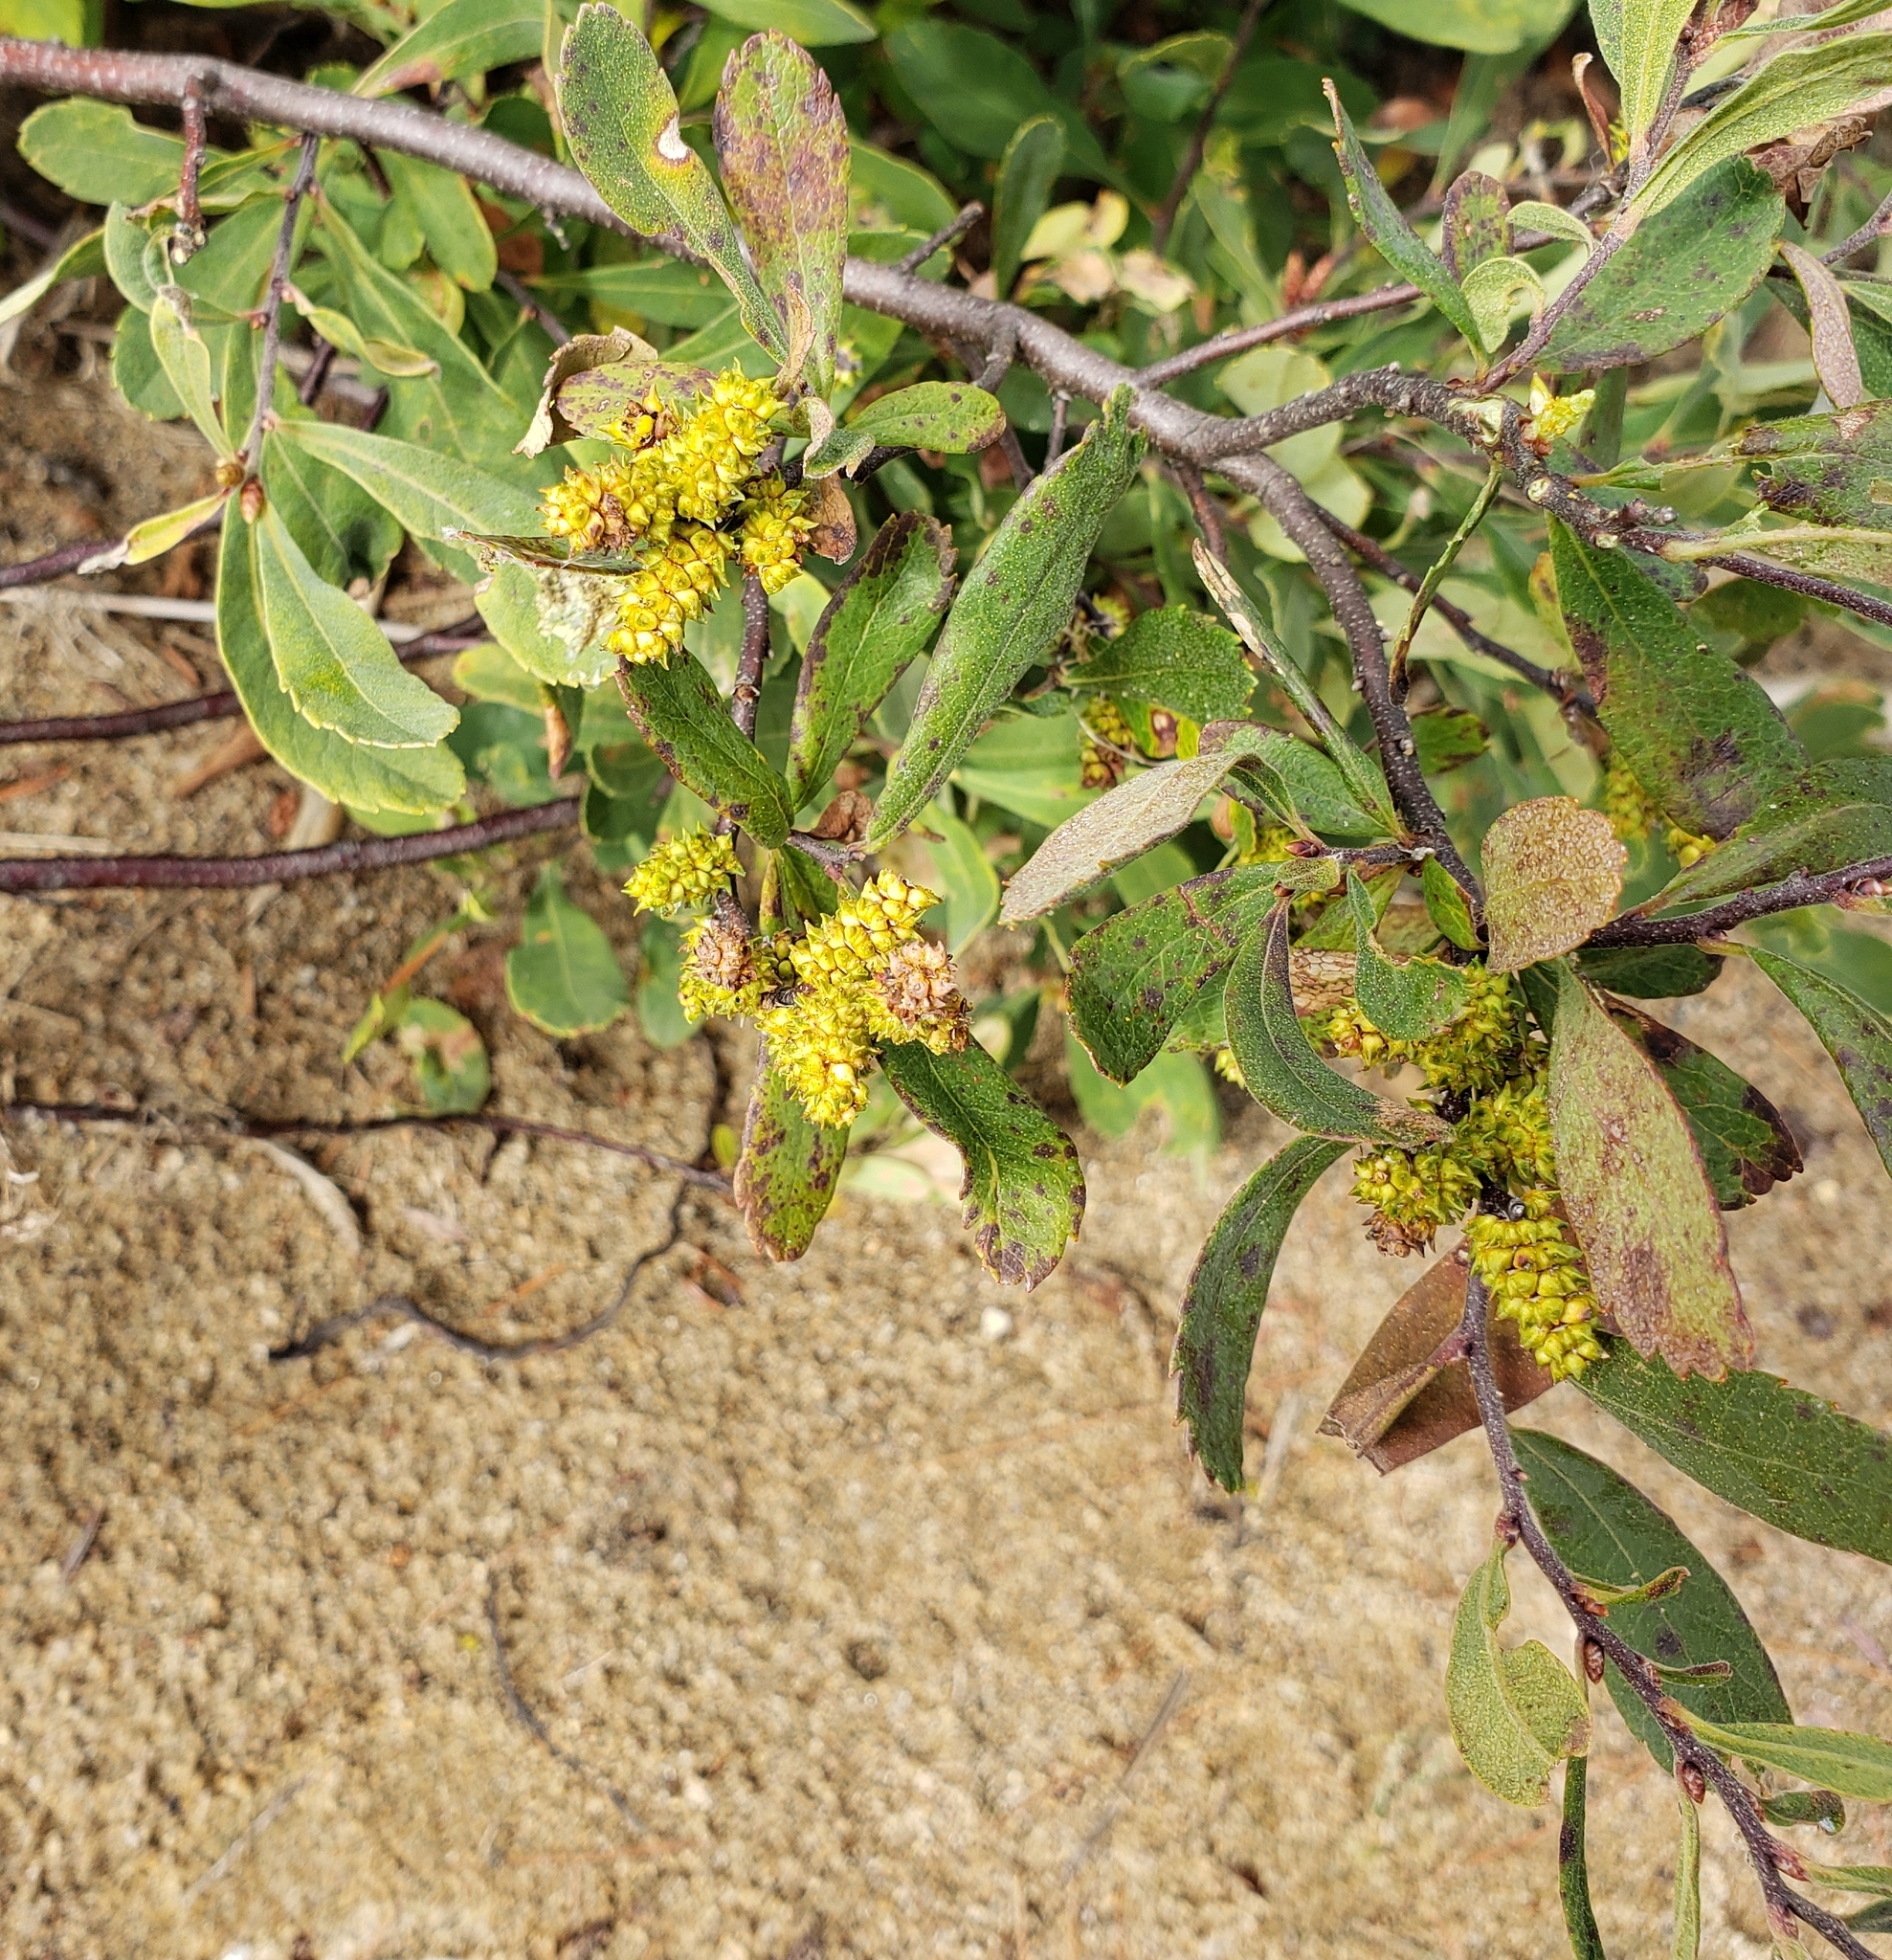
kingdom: Plantae
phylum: Tracheophyta
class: Magnoliopsida
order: Fagales
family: Myricaceae
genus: Myrica
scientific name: Myrica gale
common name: Sweet gale
